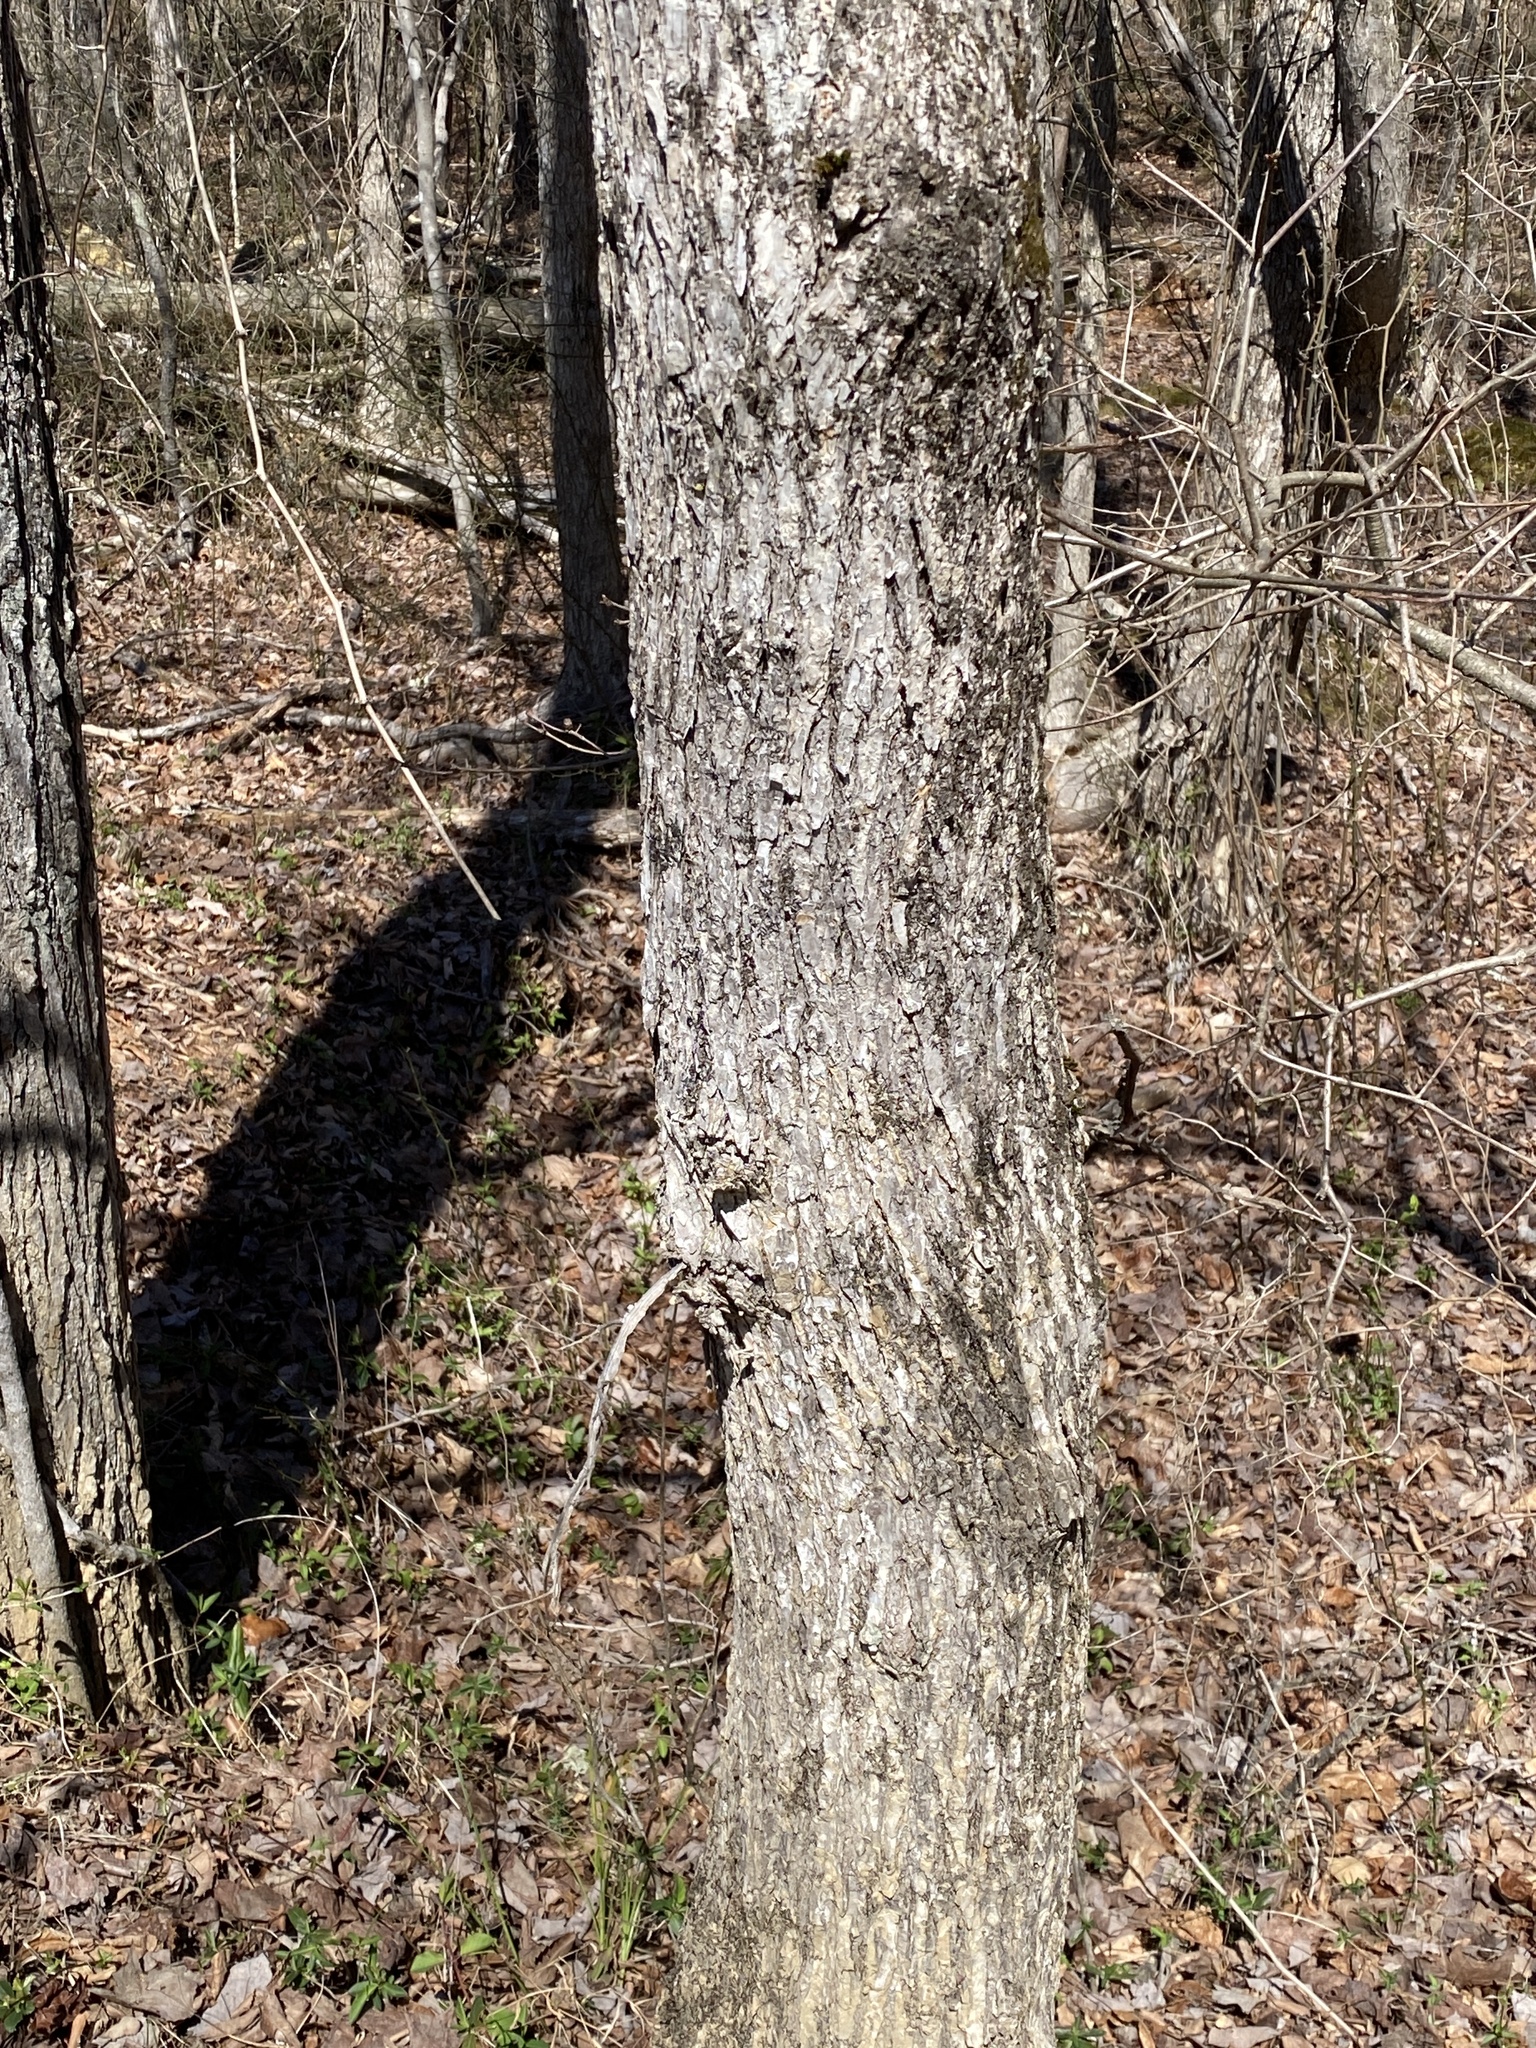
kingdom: Plantae
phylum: Tracheophyta
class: Magnoliopsida
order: Rosales
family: Ulmaceae
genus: Ulmus
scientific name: Ulmus alata
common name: Winged elm
